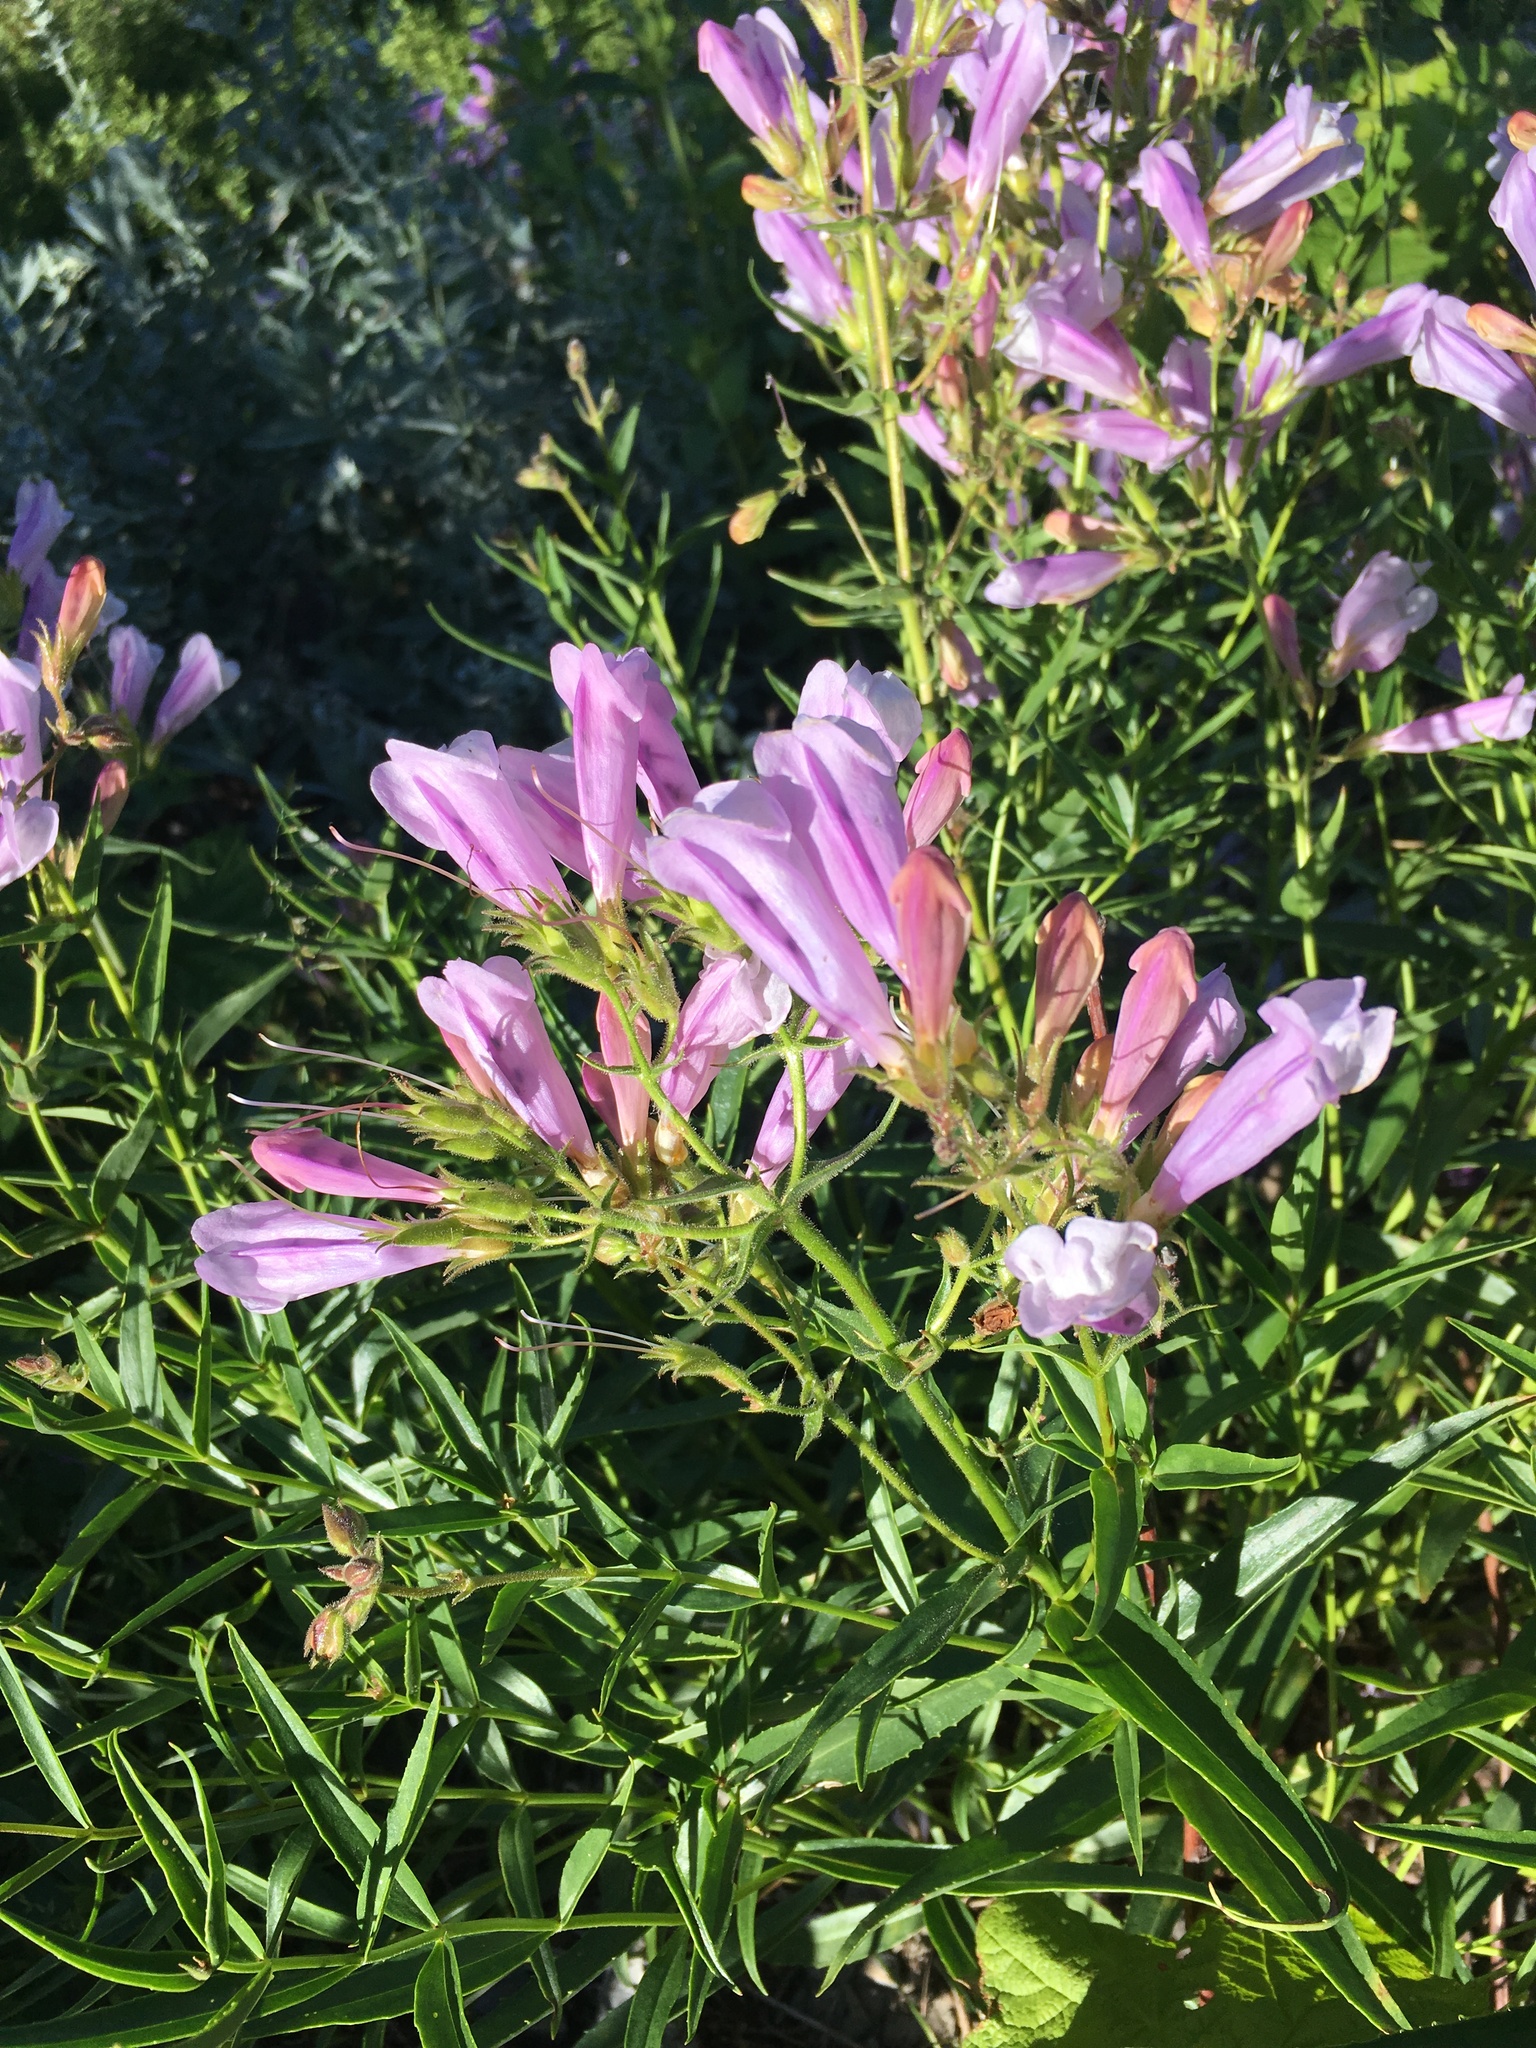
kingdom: Plantae
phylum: Tracheophyta
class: Magnoliopsida
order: Lamiales
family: Plantaginaceae
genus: Penstemon
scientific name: Penstemon lyalli
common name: Lyall's beardtongue
